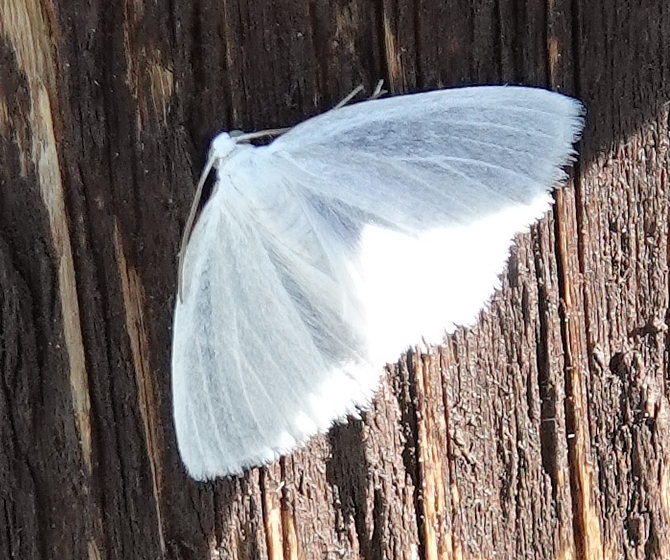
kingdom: Animalia
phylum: Arthropoda
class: Insecta
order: Lepidoptera
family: Geometridae
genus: Lomographa
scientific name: Lomographa vestaliata
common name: White spring moth
